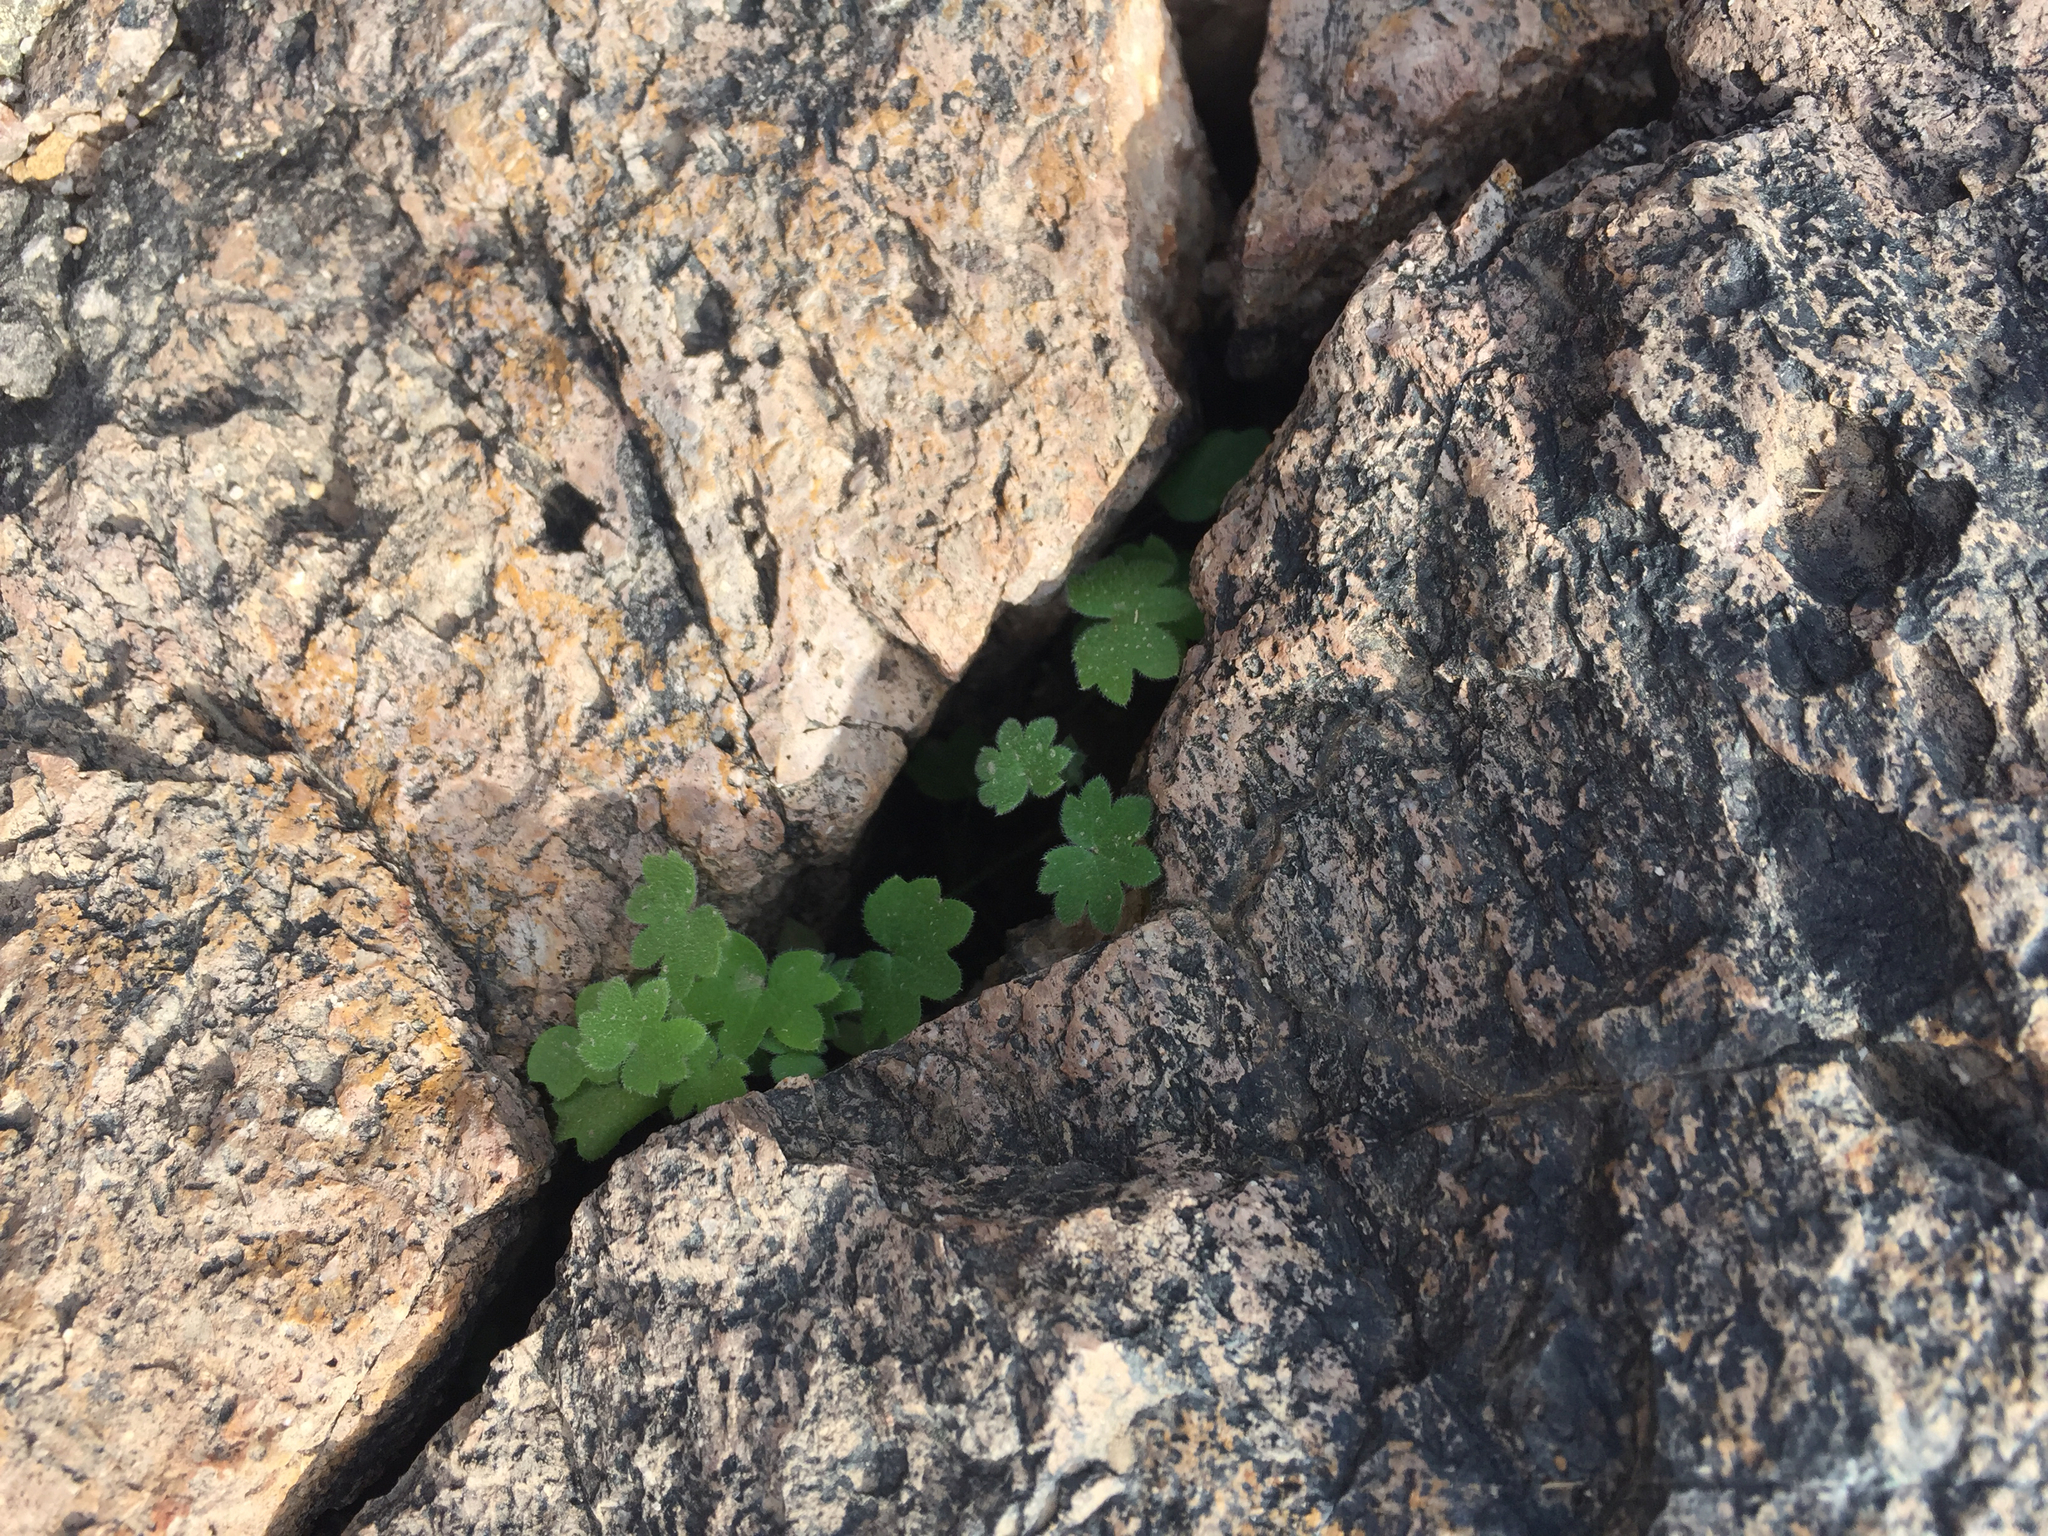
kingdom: Plantae
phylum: Tracheophyta
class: Magnoliopsida
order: Apiales
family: Apiaceae
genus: Bowlesia
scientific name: Bowlesia incana
